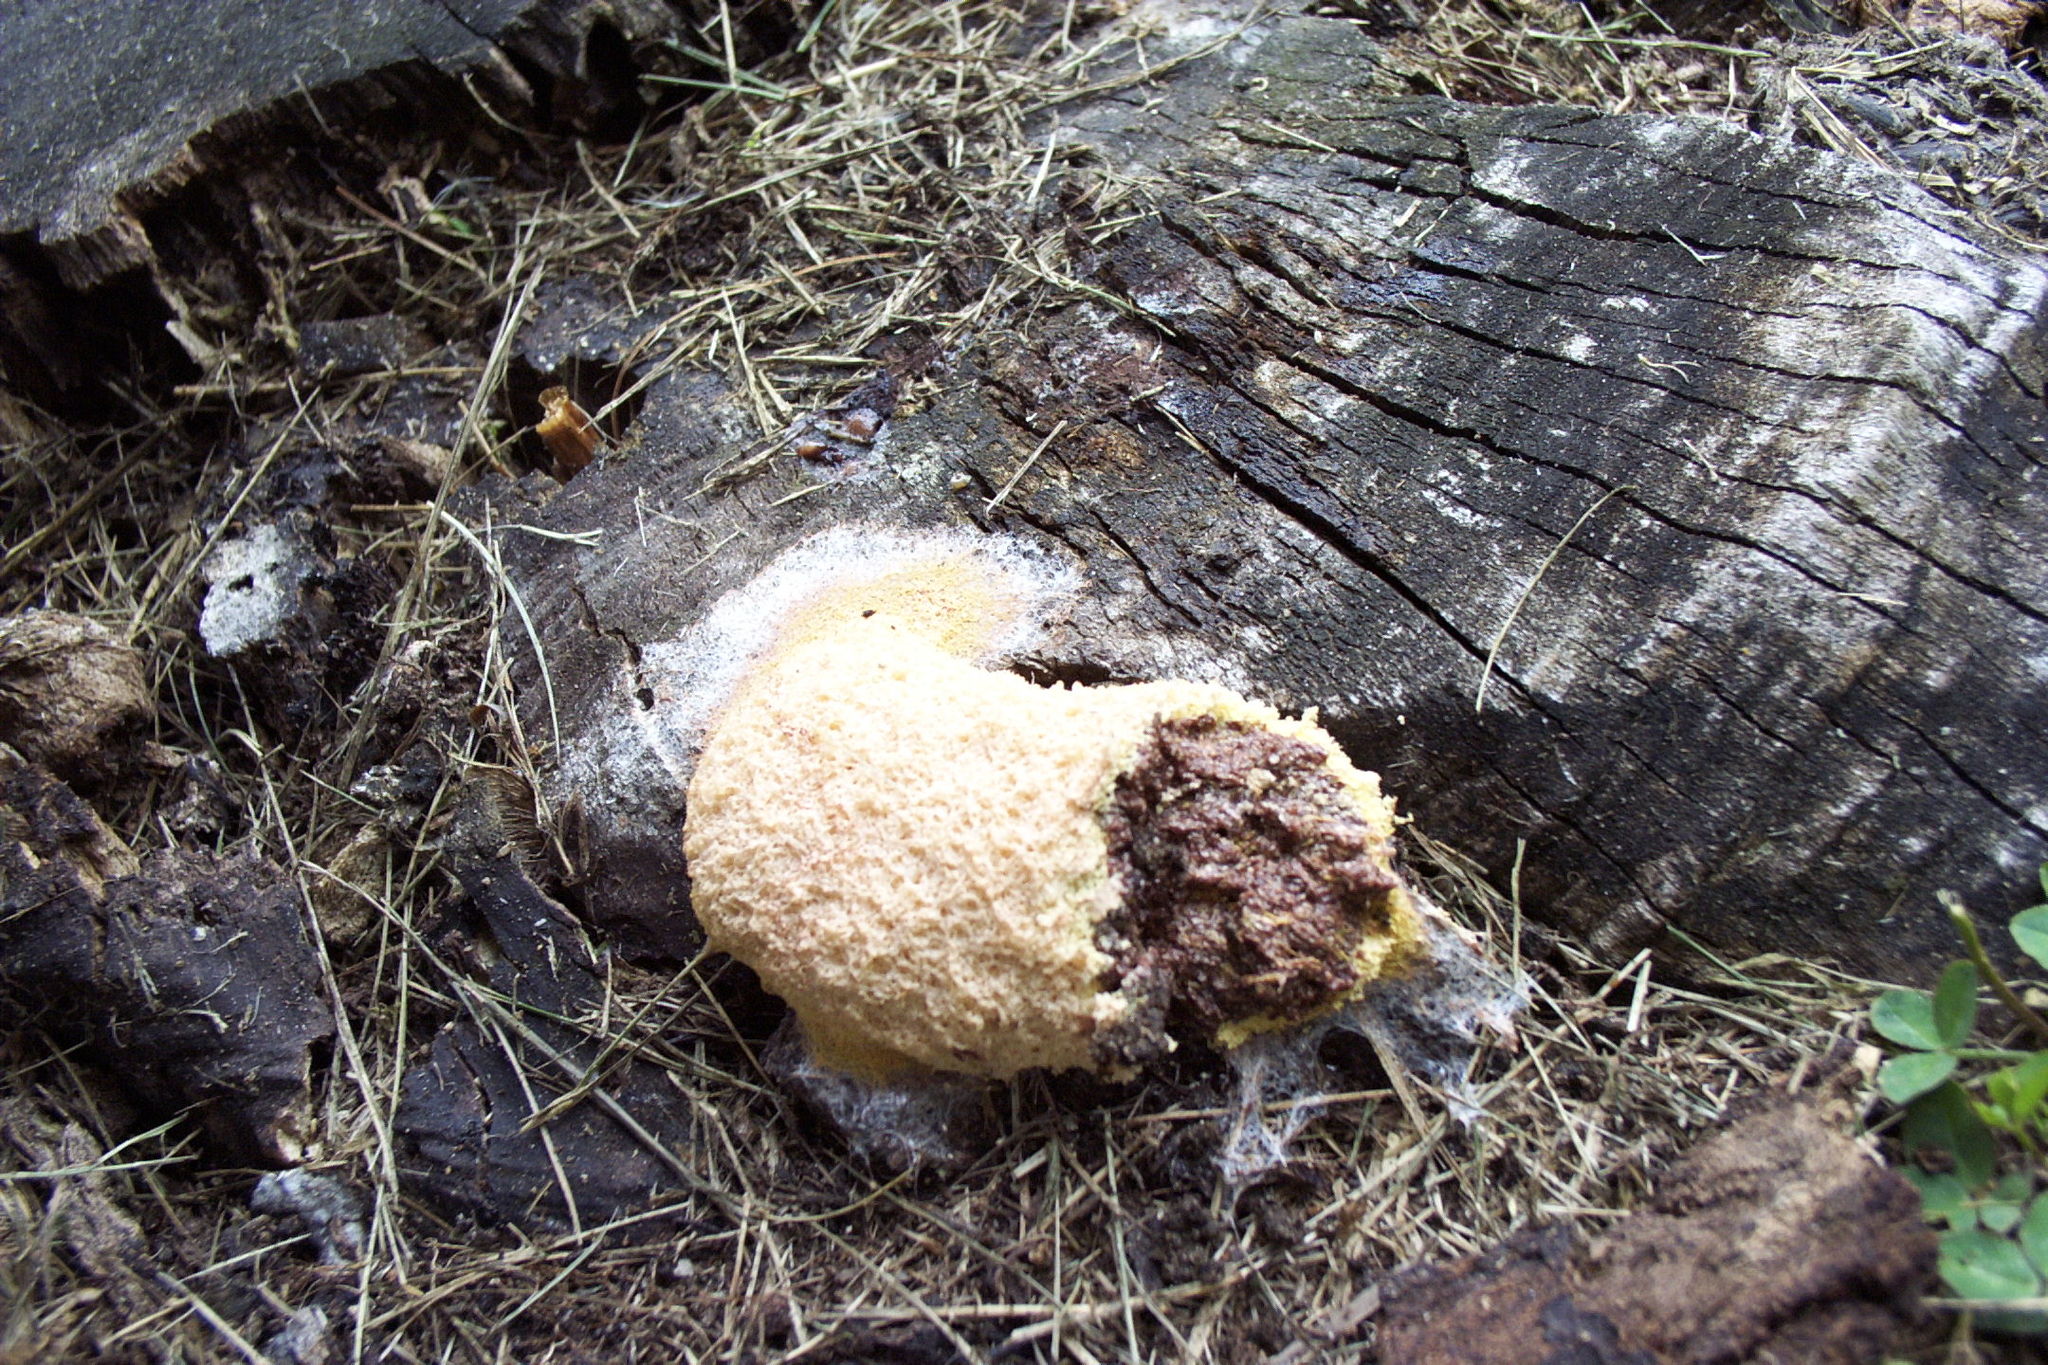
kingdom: Protozoa
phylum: Mycetozoa
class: Myxomycetes
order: Physarales
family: Physaraceae
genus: Fuligo
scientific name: Fuligo septica
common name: Dog vomit slime mold
